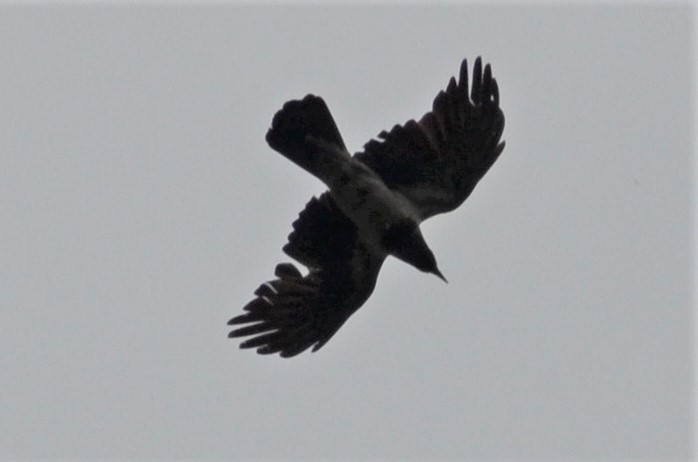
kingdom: Animalia
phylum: Chordata
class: Aves
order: Passeriformes
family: Corvidae
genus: Corvus
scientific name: Corvus cornix
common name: Hooded crow
